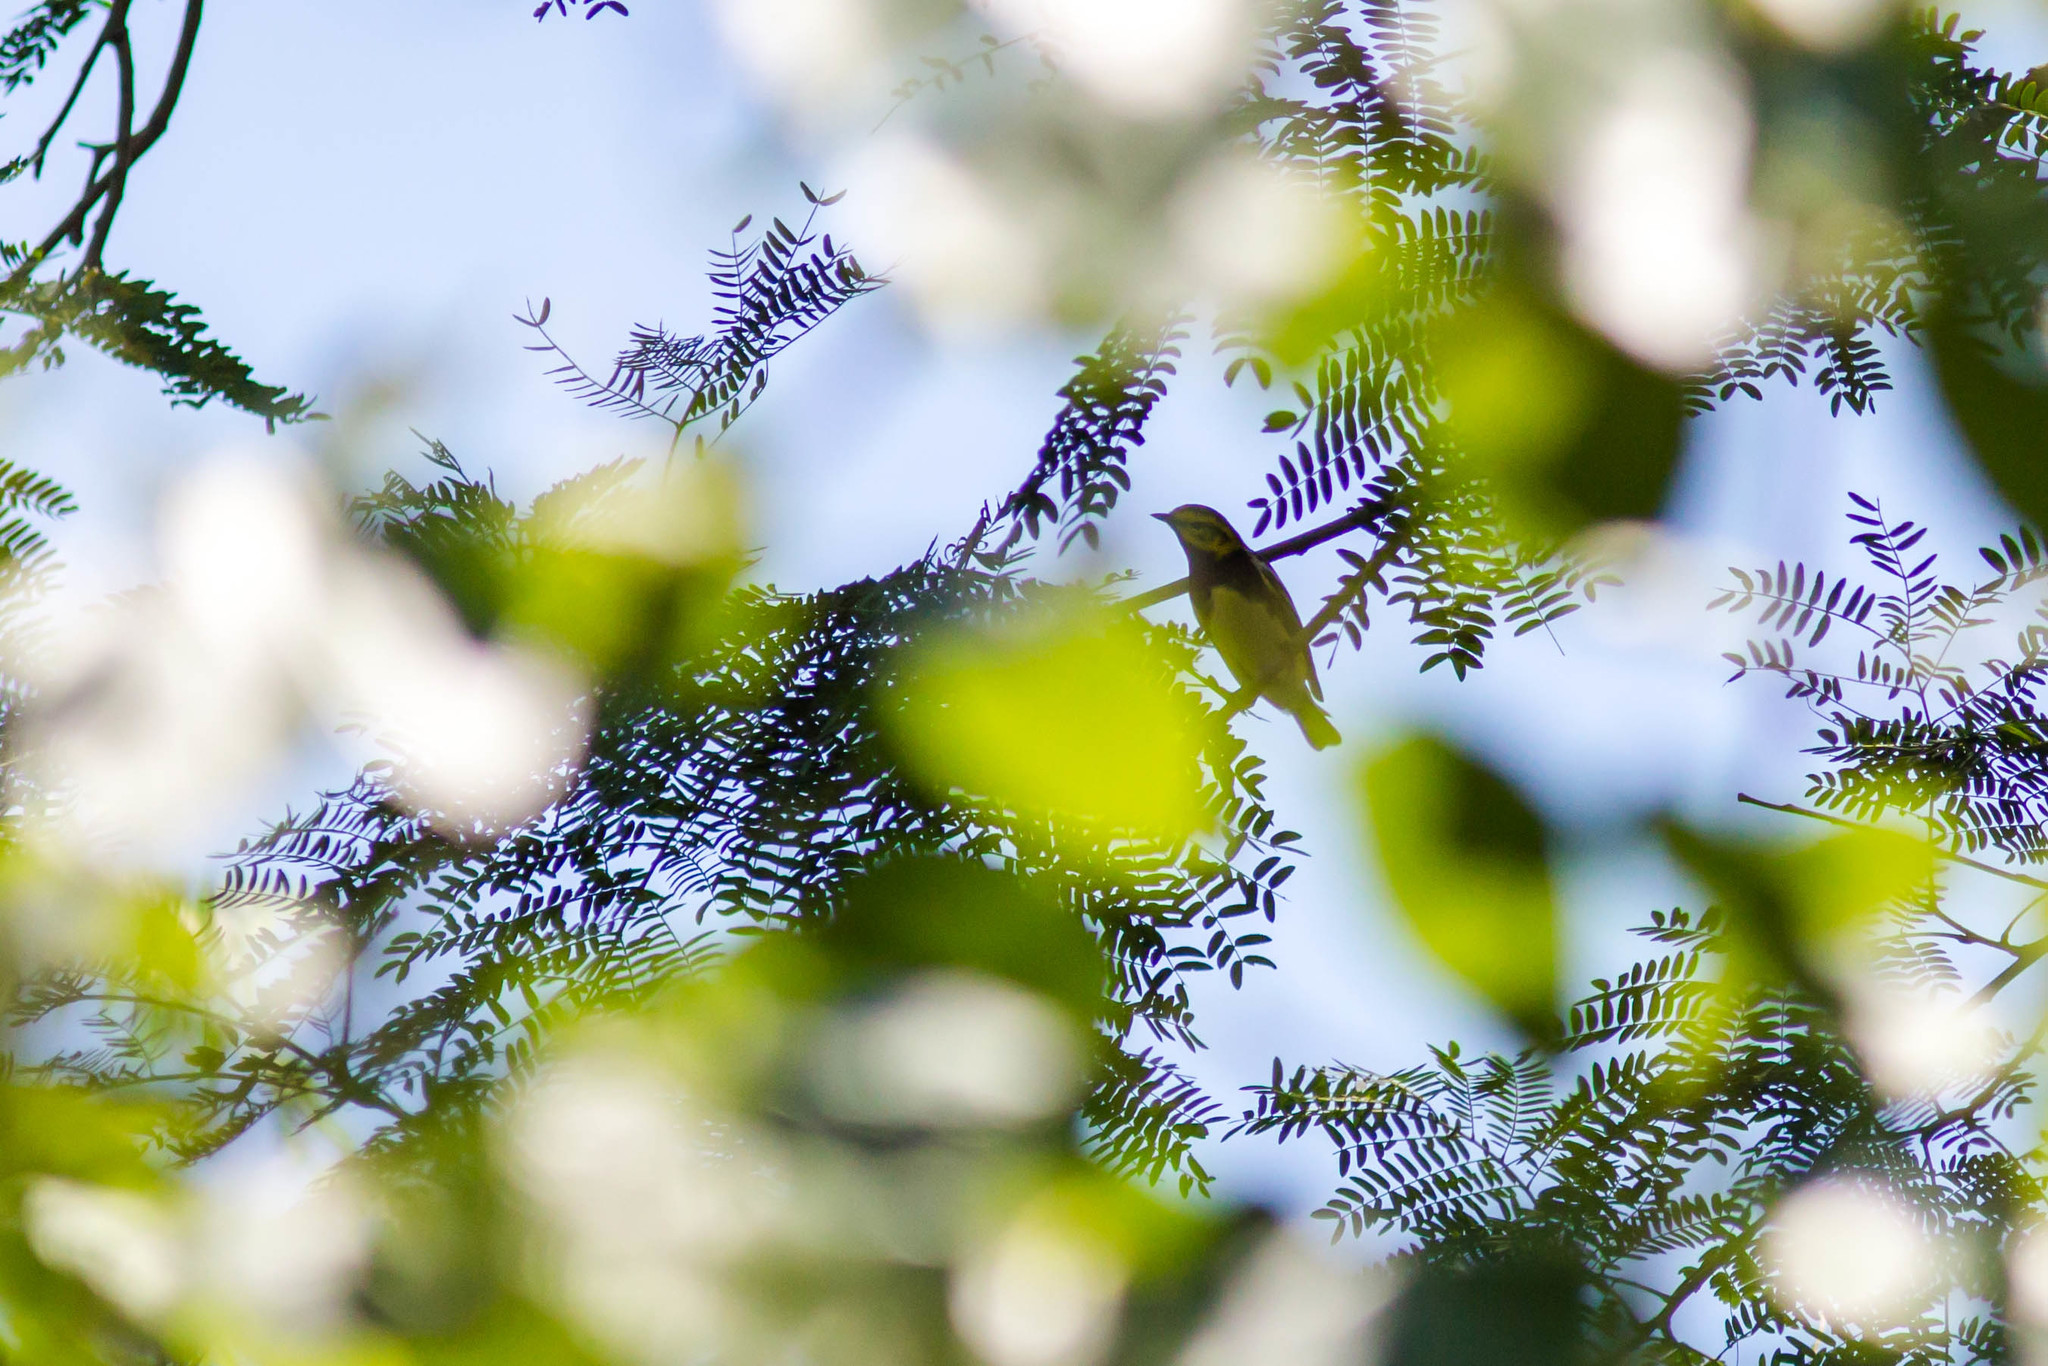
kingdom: Animalia
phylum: Chordata
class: Aves
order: Passeriformes
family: Parulidae
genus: Setophaga
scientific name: Setophaga virens
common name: Black-throated green warbler
